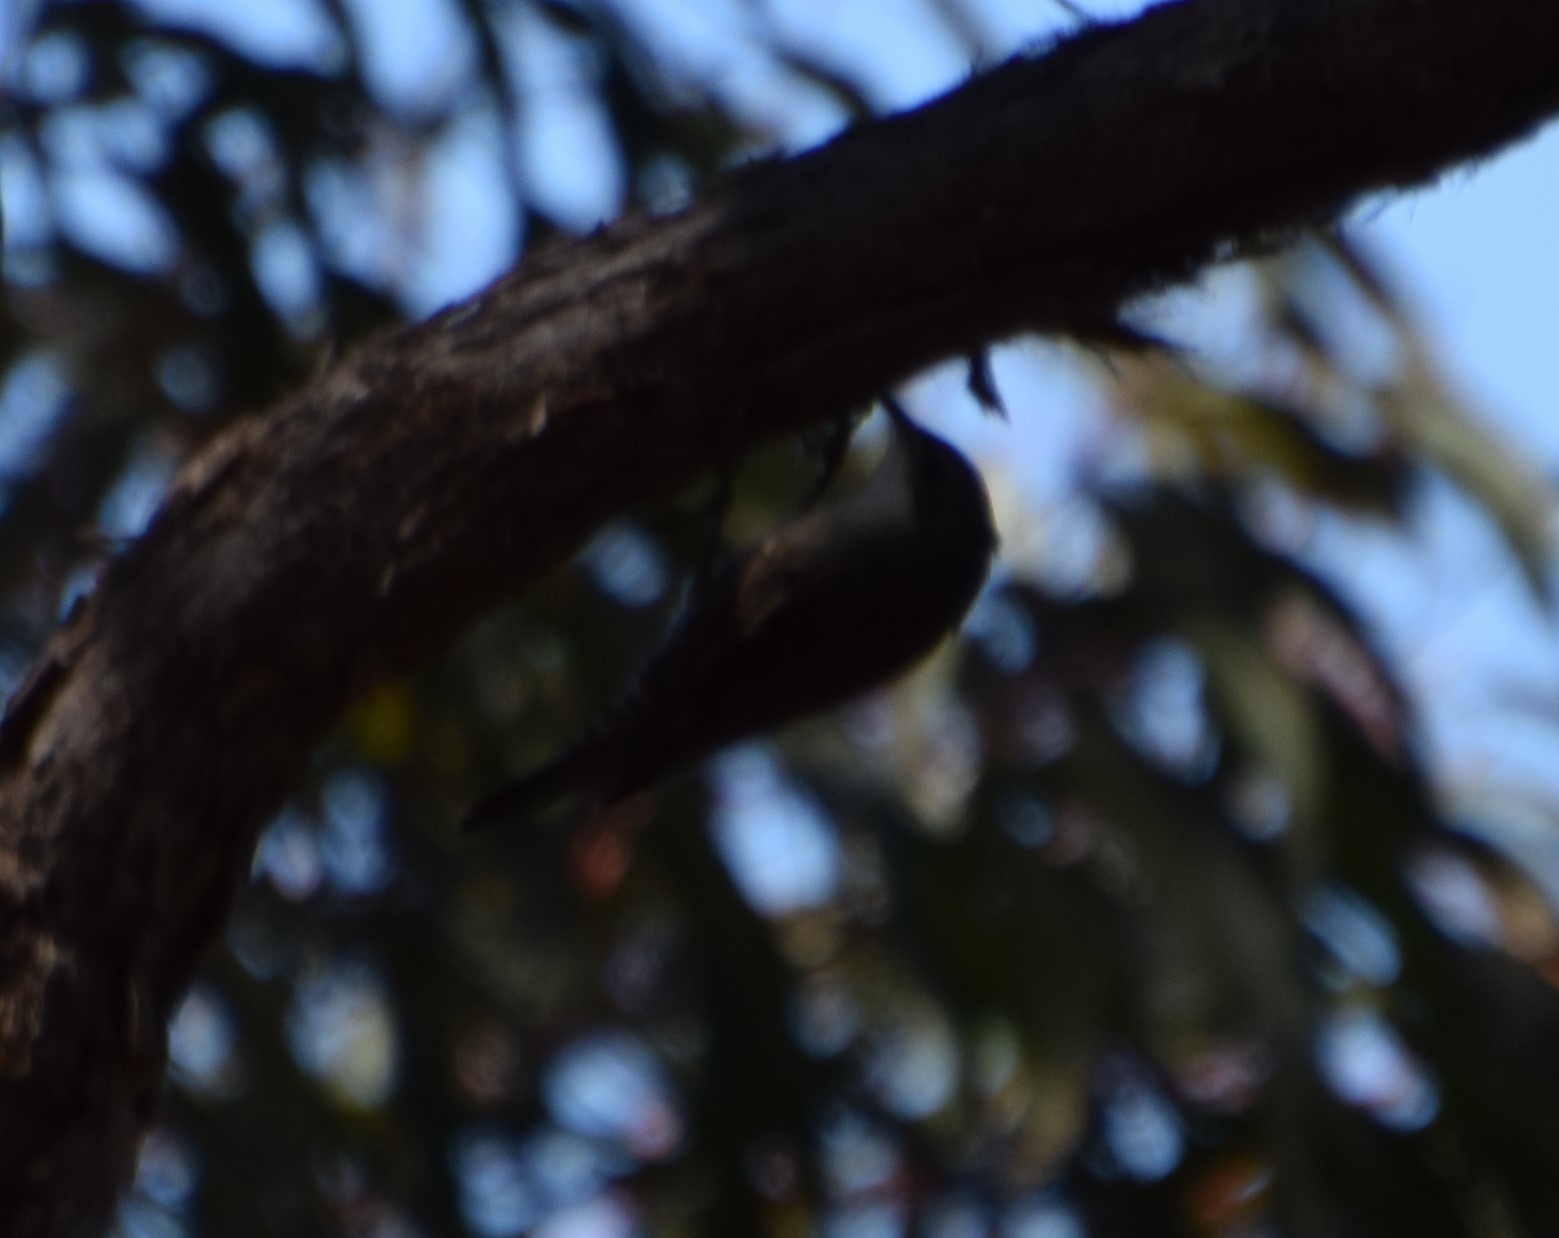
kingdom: Animalia
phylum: Chordata
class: Aves
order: Passeriformes
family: Climacteridae
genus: Cormobates
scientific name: Cormobates leucophaea
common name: White-throated treecreeper
